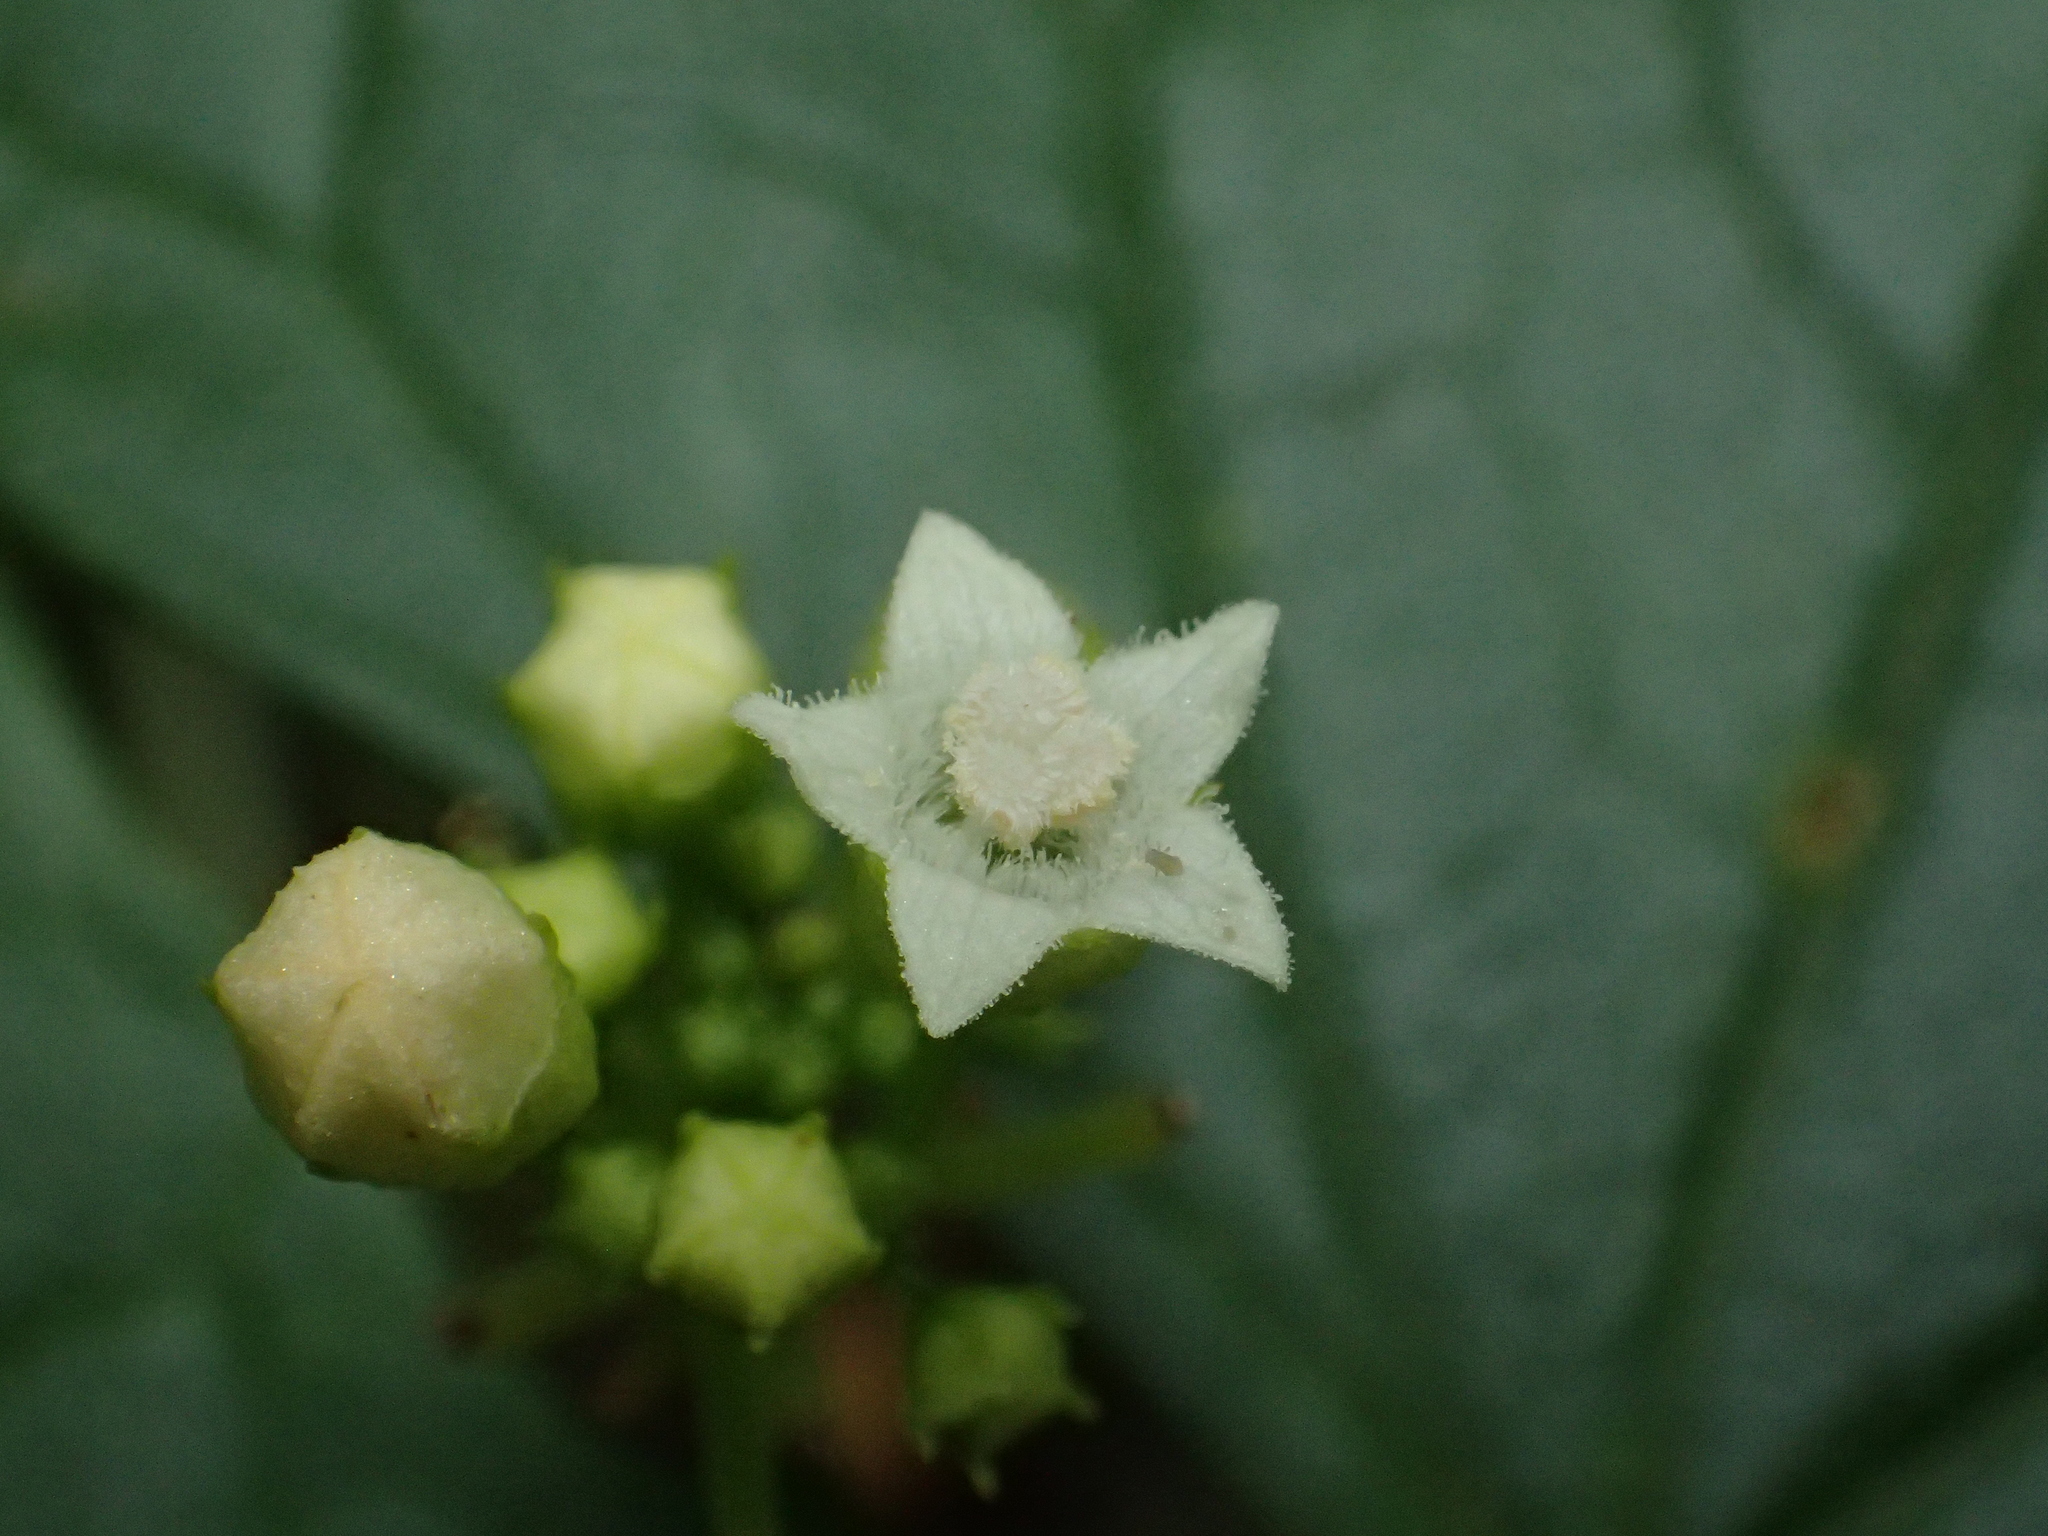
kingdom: Plantae
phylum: Tracheophyta
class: Magnoliopsida
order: Cucurbitales
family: Cucurbitaceae
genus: Zehneria
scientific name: Zehneria guamensis
